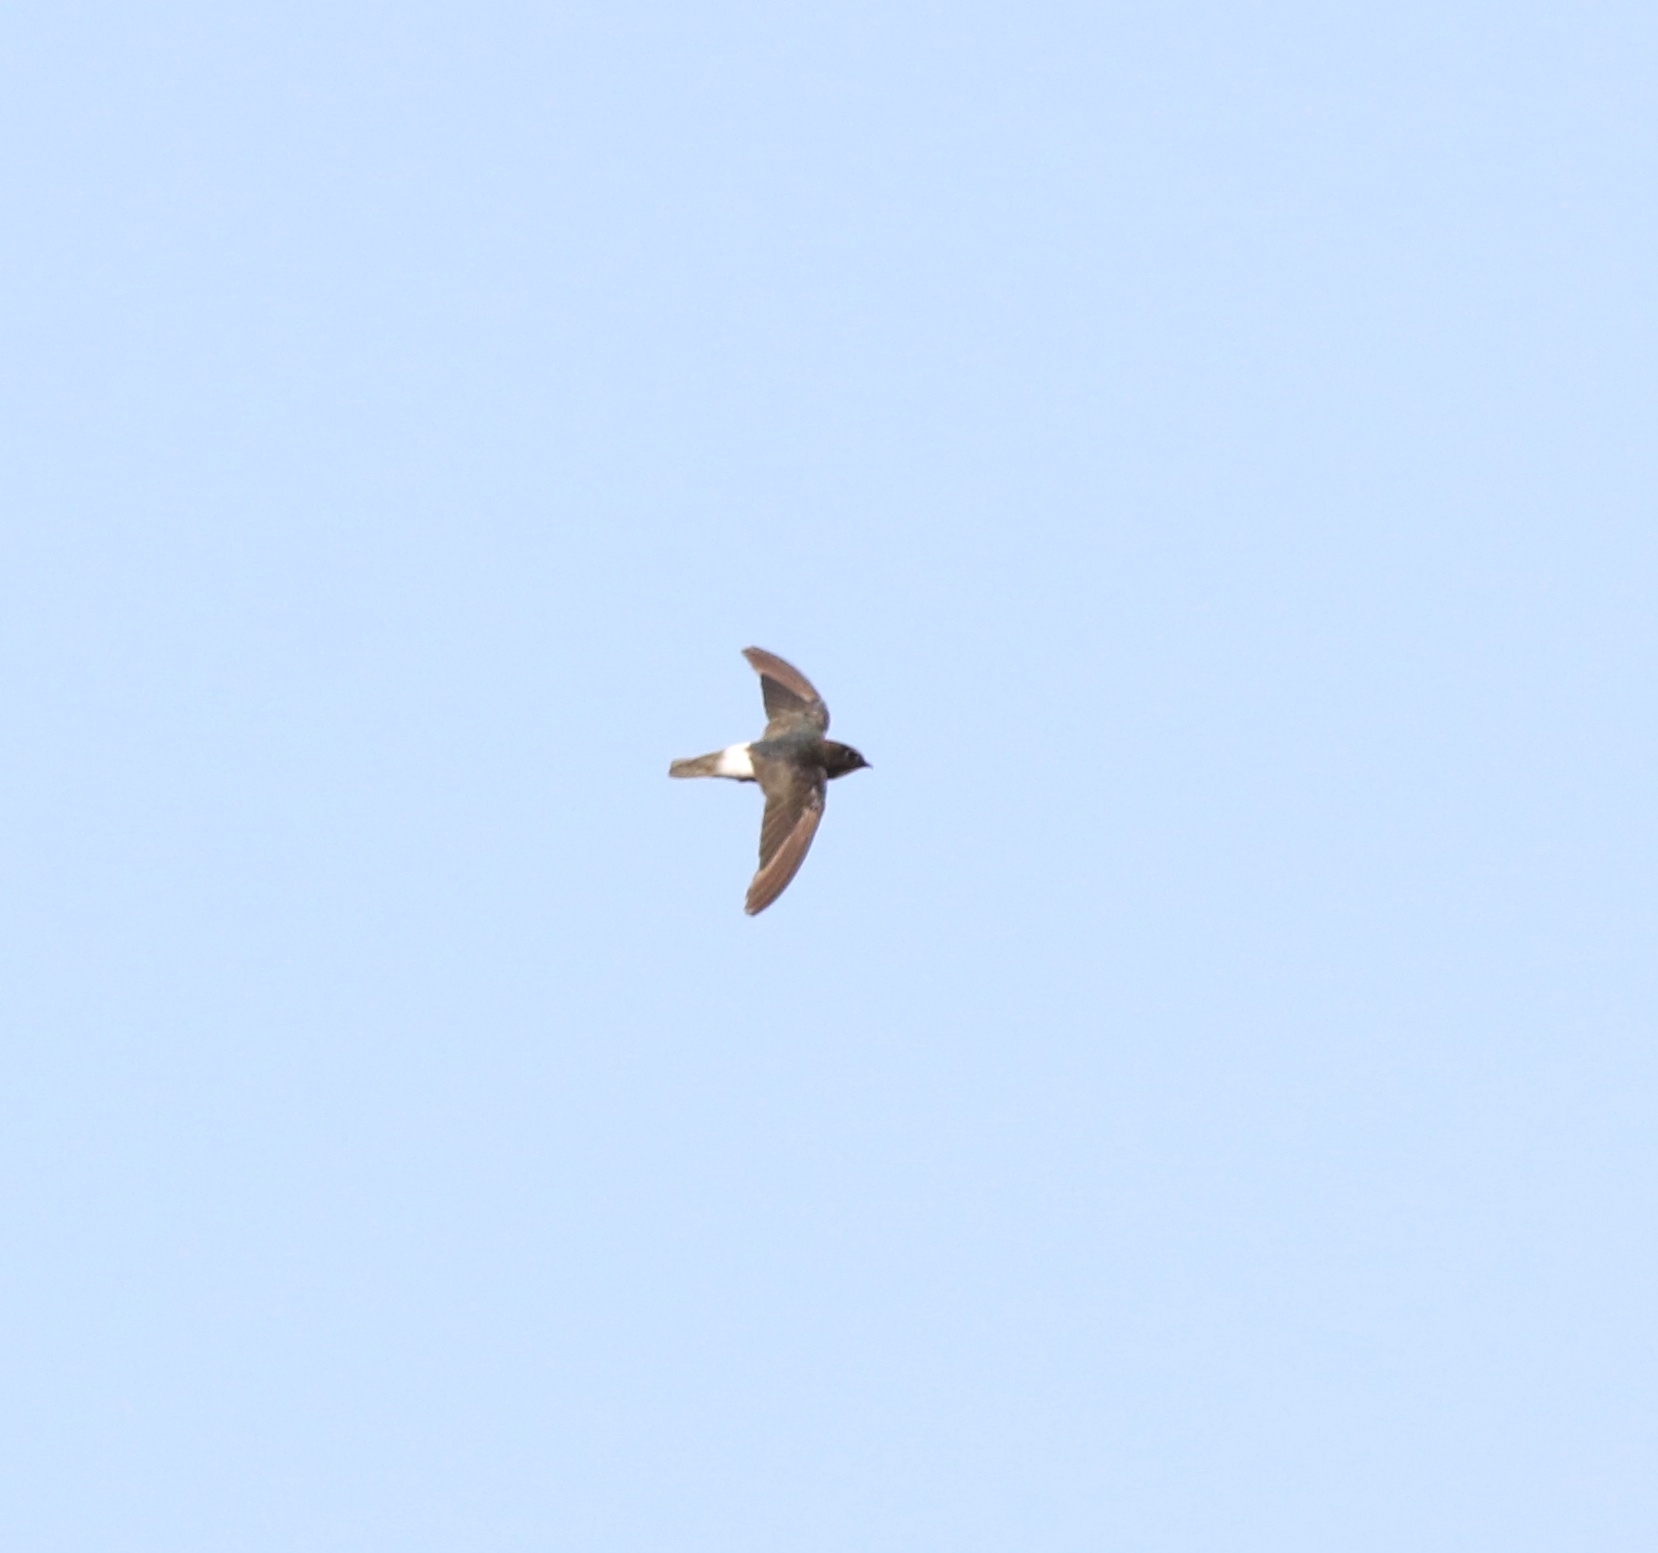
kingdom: Animalia
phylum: Chordata
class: Aves
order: Apodiformes
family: Apodidae
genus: Apus
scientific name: Apus affinis
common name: Little swift
